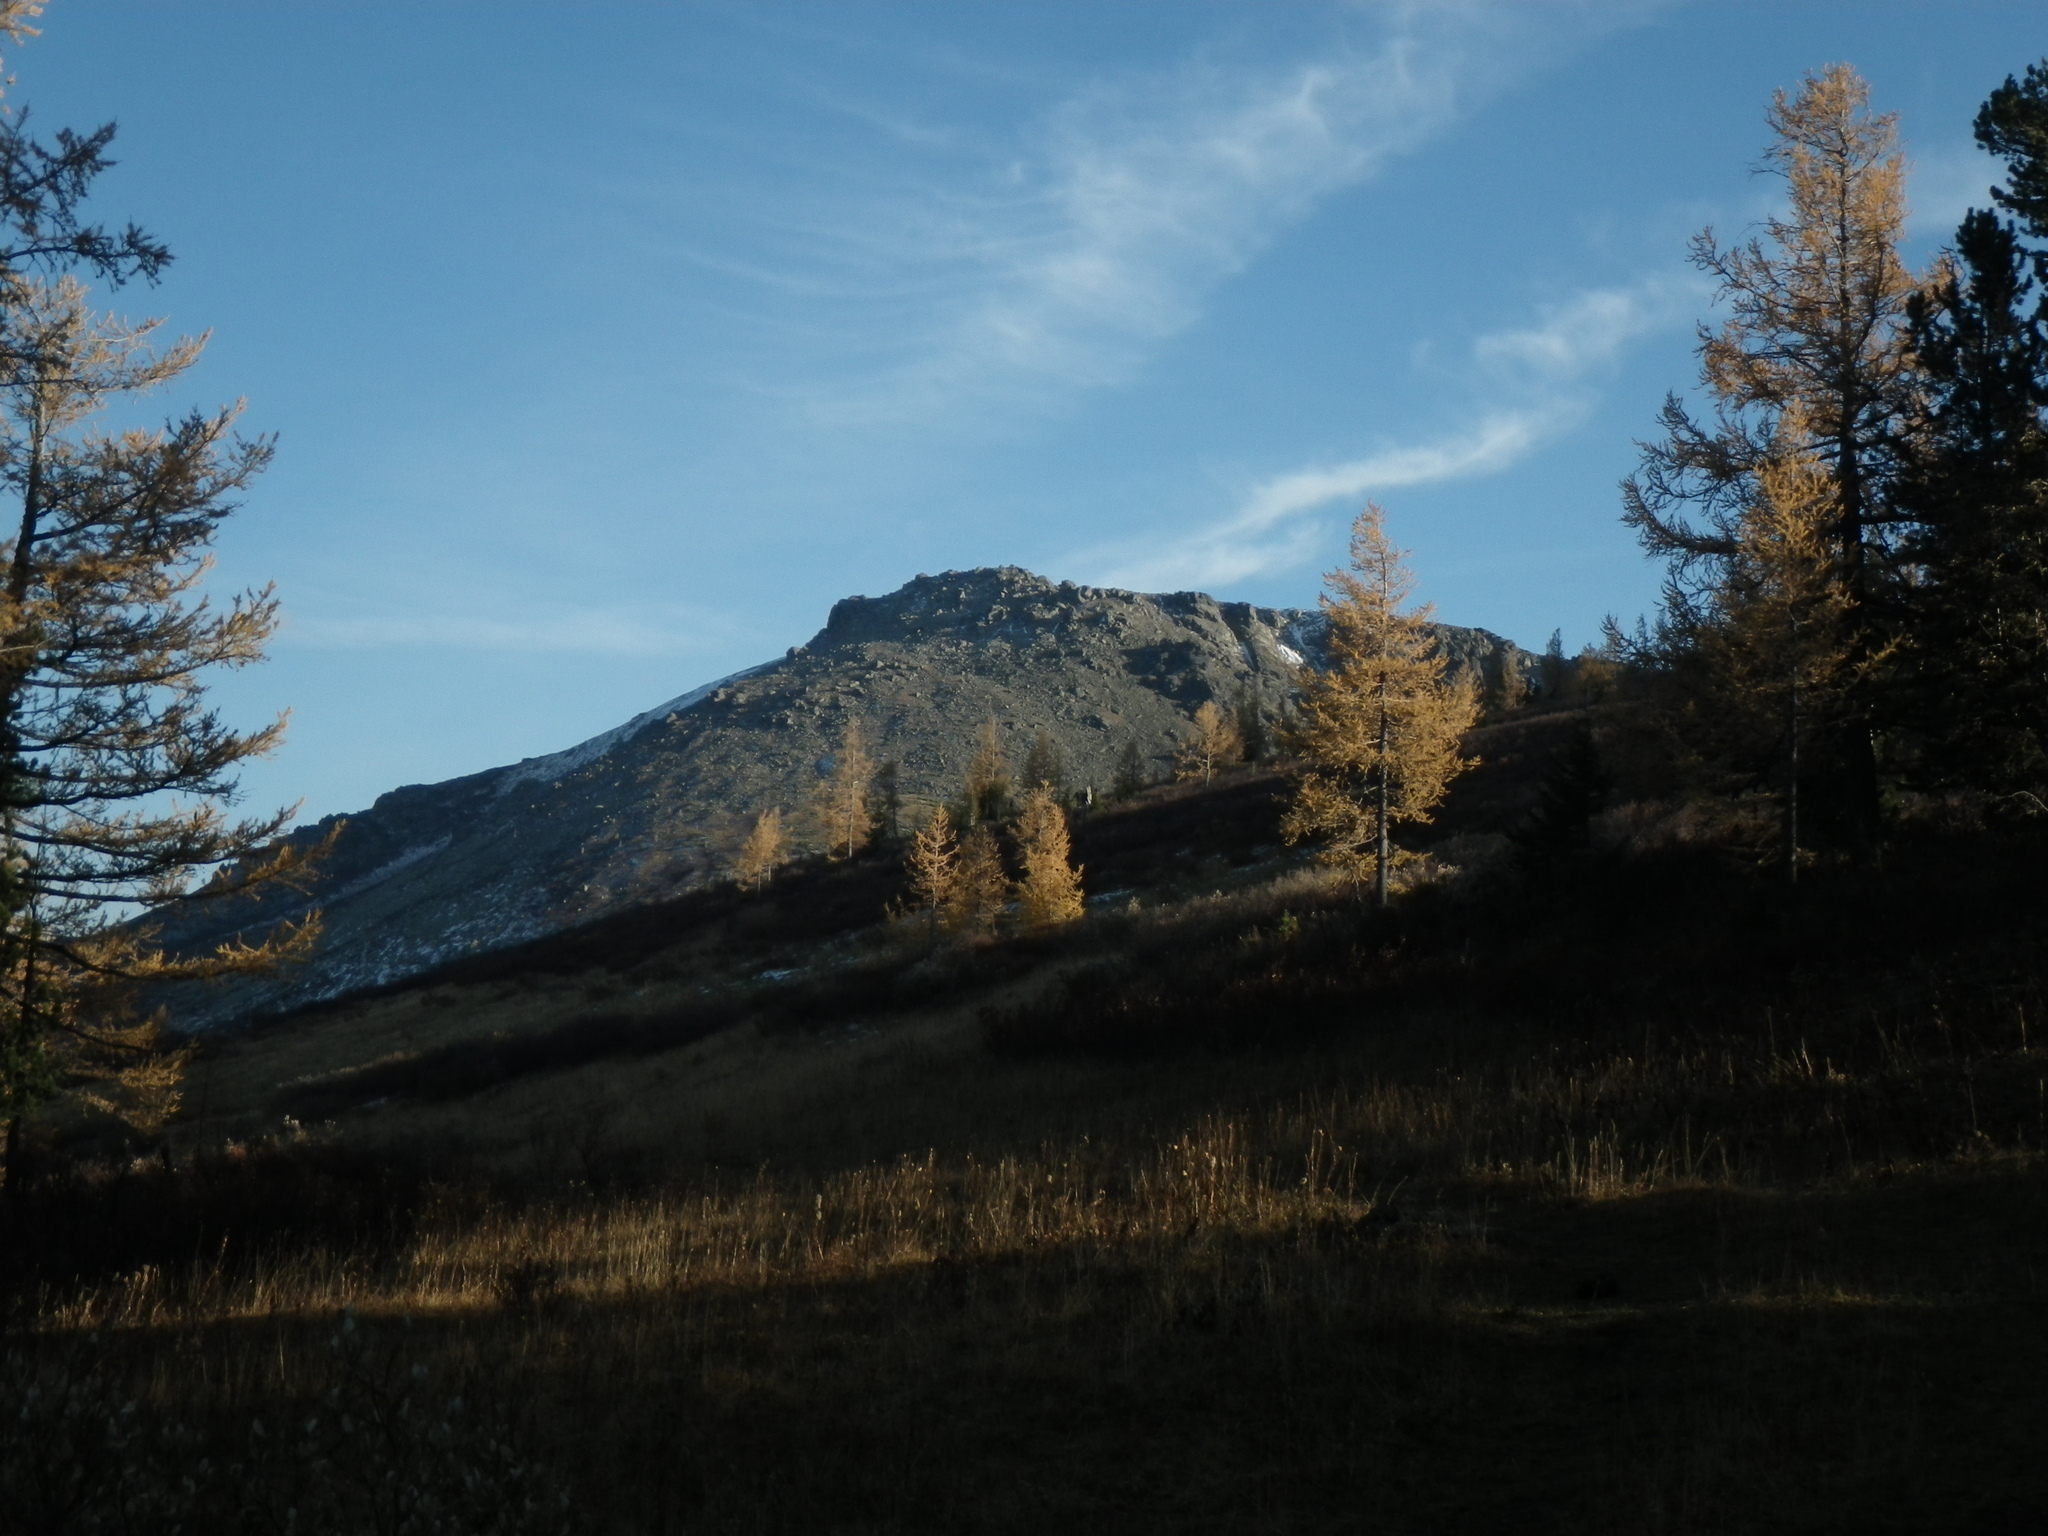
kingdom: Plantae
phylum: Tracheophyta
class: Pinopsida
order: Pinales
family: Pinaceae
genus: Larix
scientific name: Larix sibirica
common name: Siberian larch
